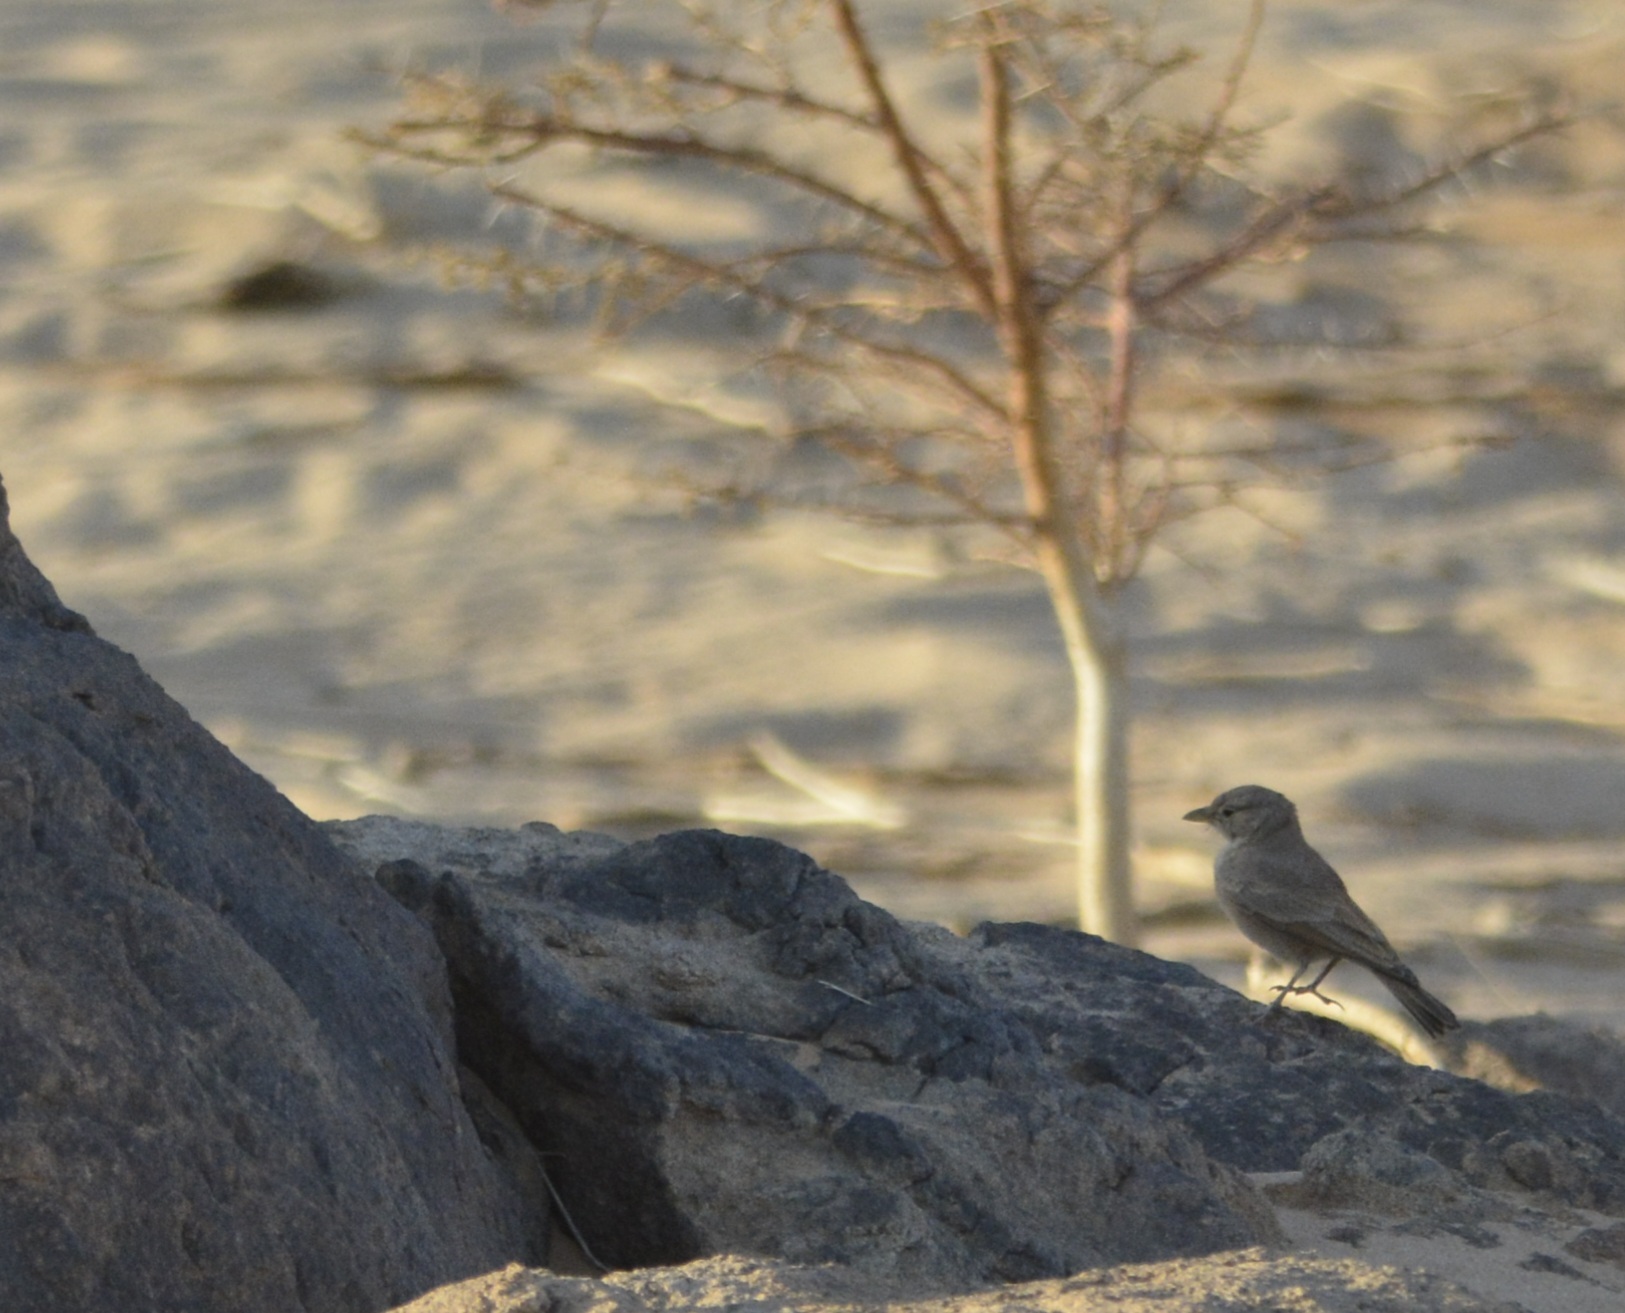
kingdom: Animalia
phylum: Chordata
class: Aves
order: Passeriformes
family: Alaudidae
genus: Ammomanes
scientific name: Ammomanes deserti
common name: Desert lark
